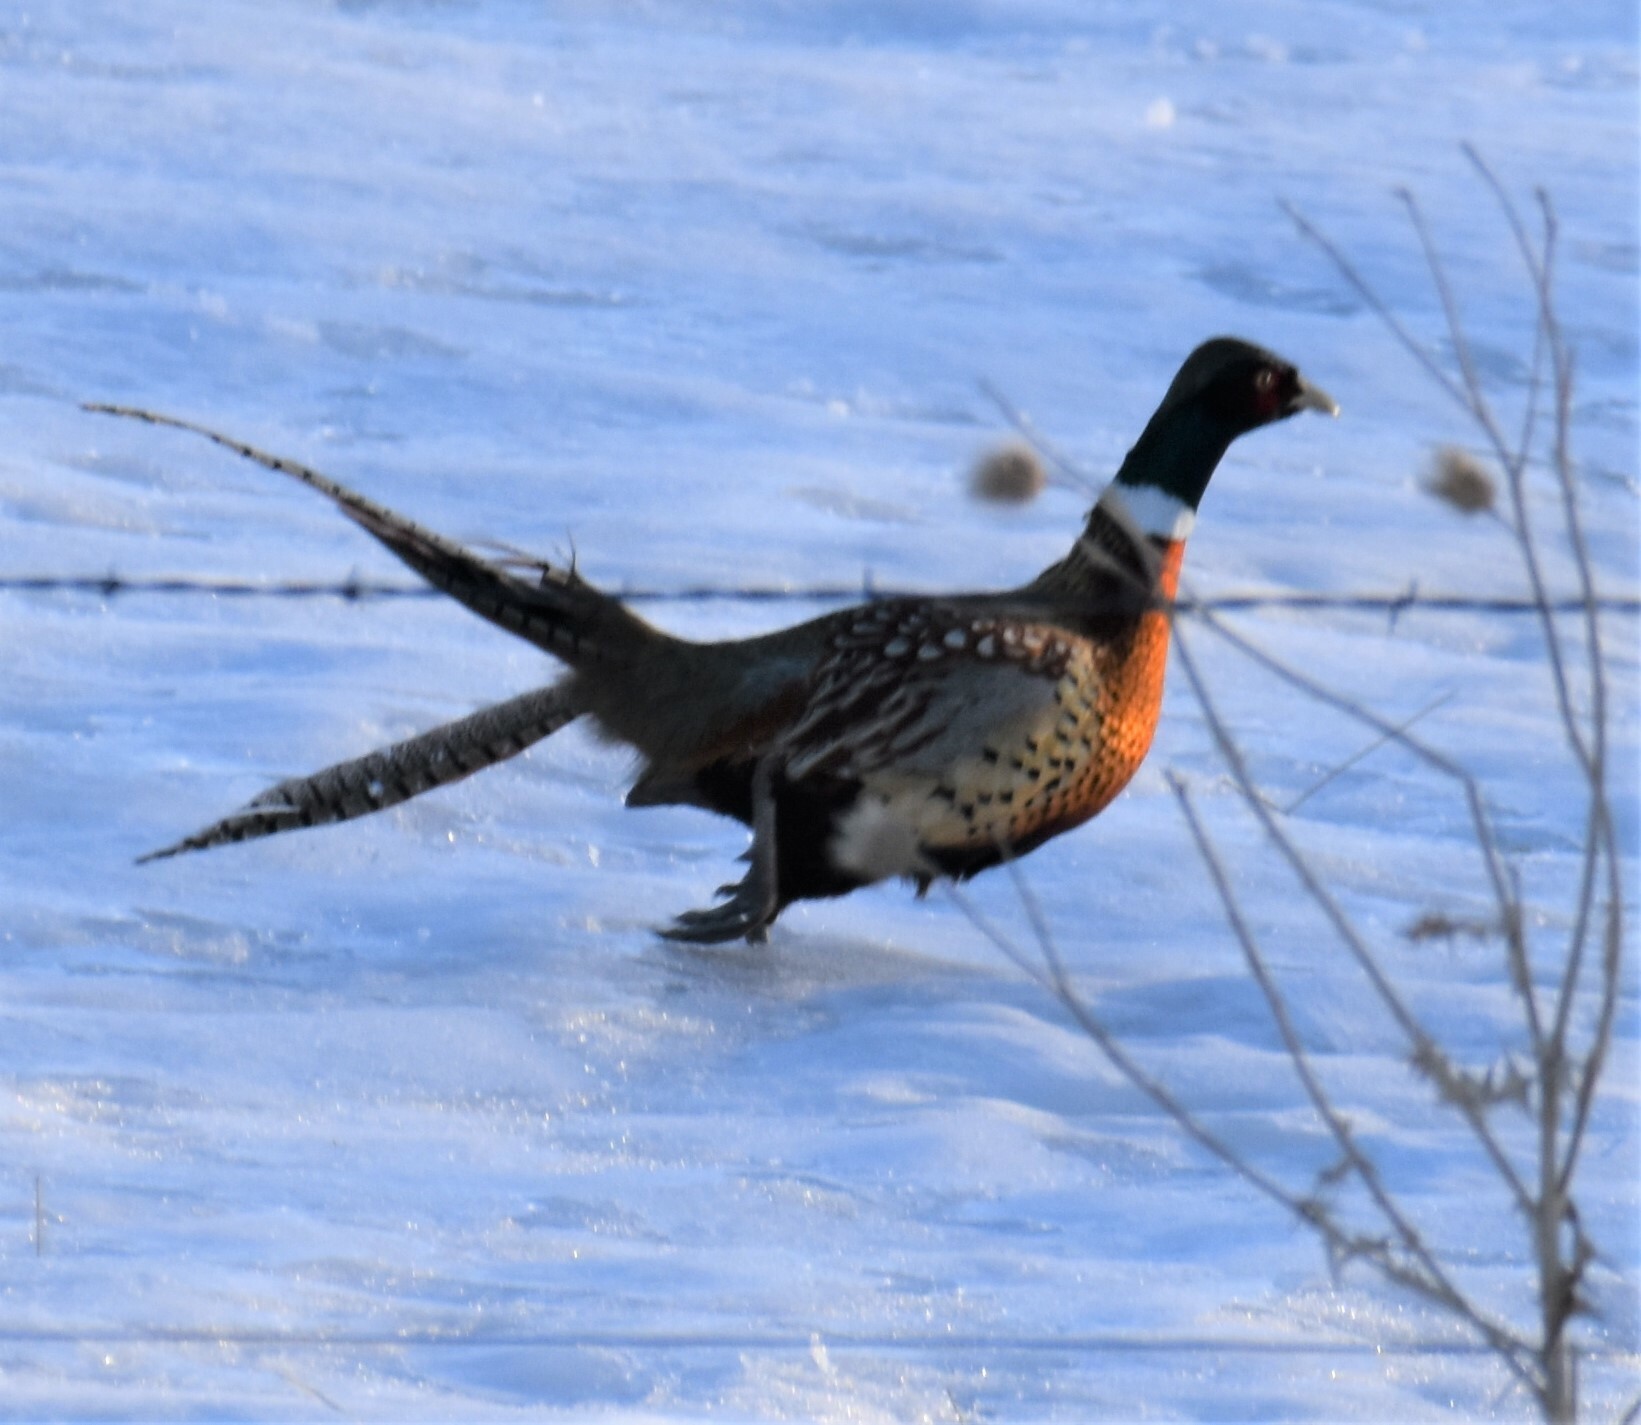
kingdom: Animalia
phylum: Chordata
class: Aves
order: Galliformes
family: Phasianidae
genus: Phasianus
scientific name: Phasianus colchicus
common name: Common pheasant
